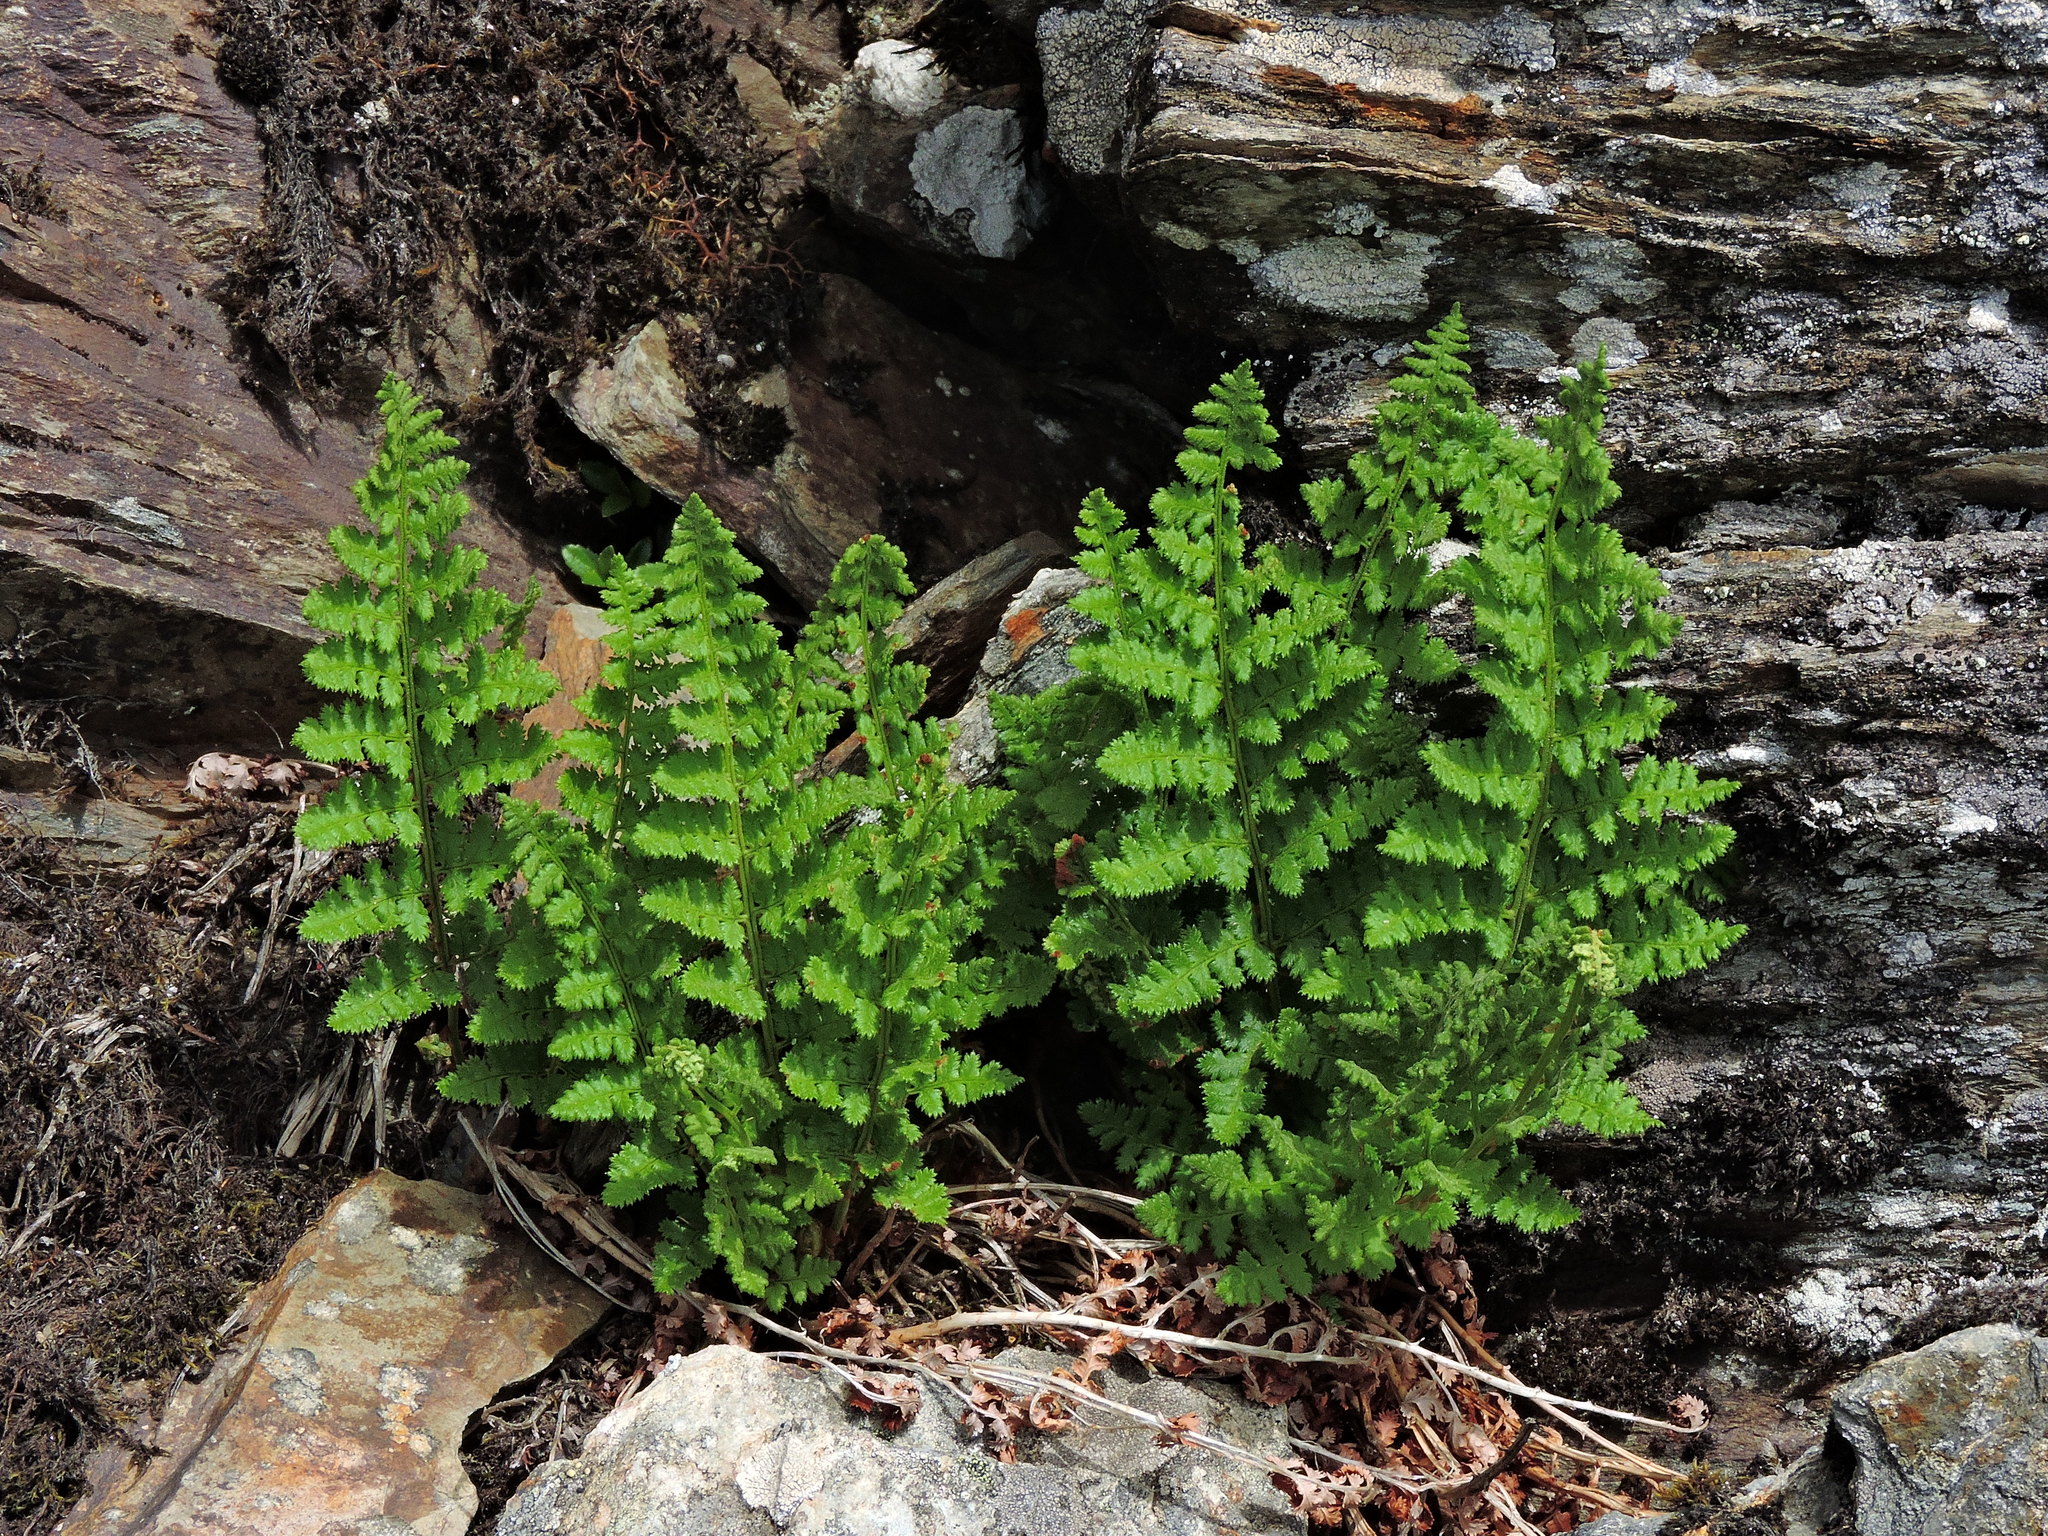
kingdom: Plantae
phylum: Tracheophyta
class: Polypodiopsida
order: Polypodiales
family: Dryopteridaceae
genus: Dryopteris
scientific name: Dryopteris alpestris
